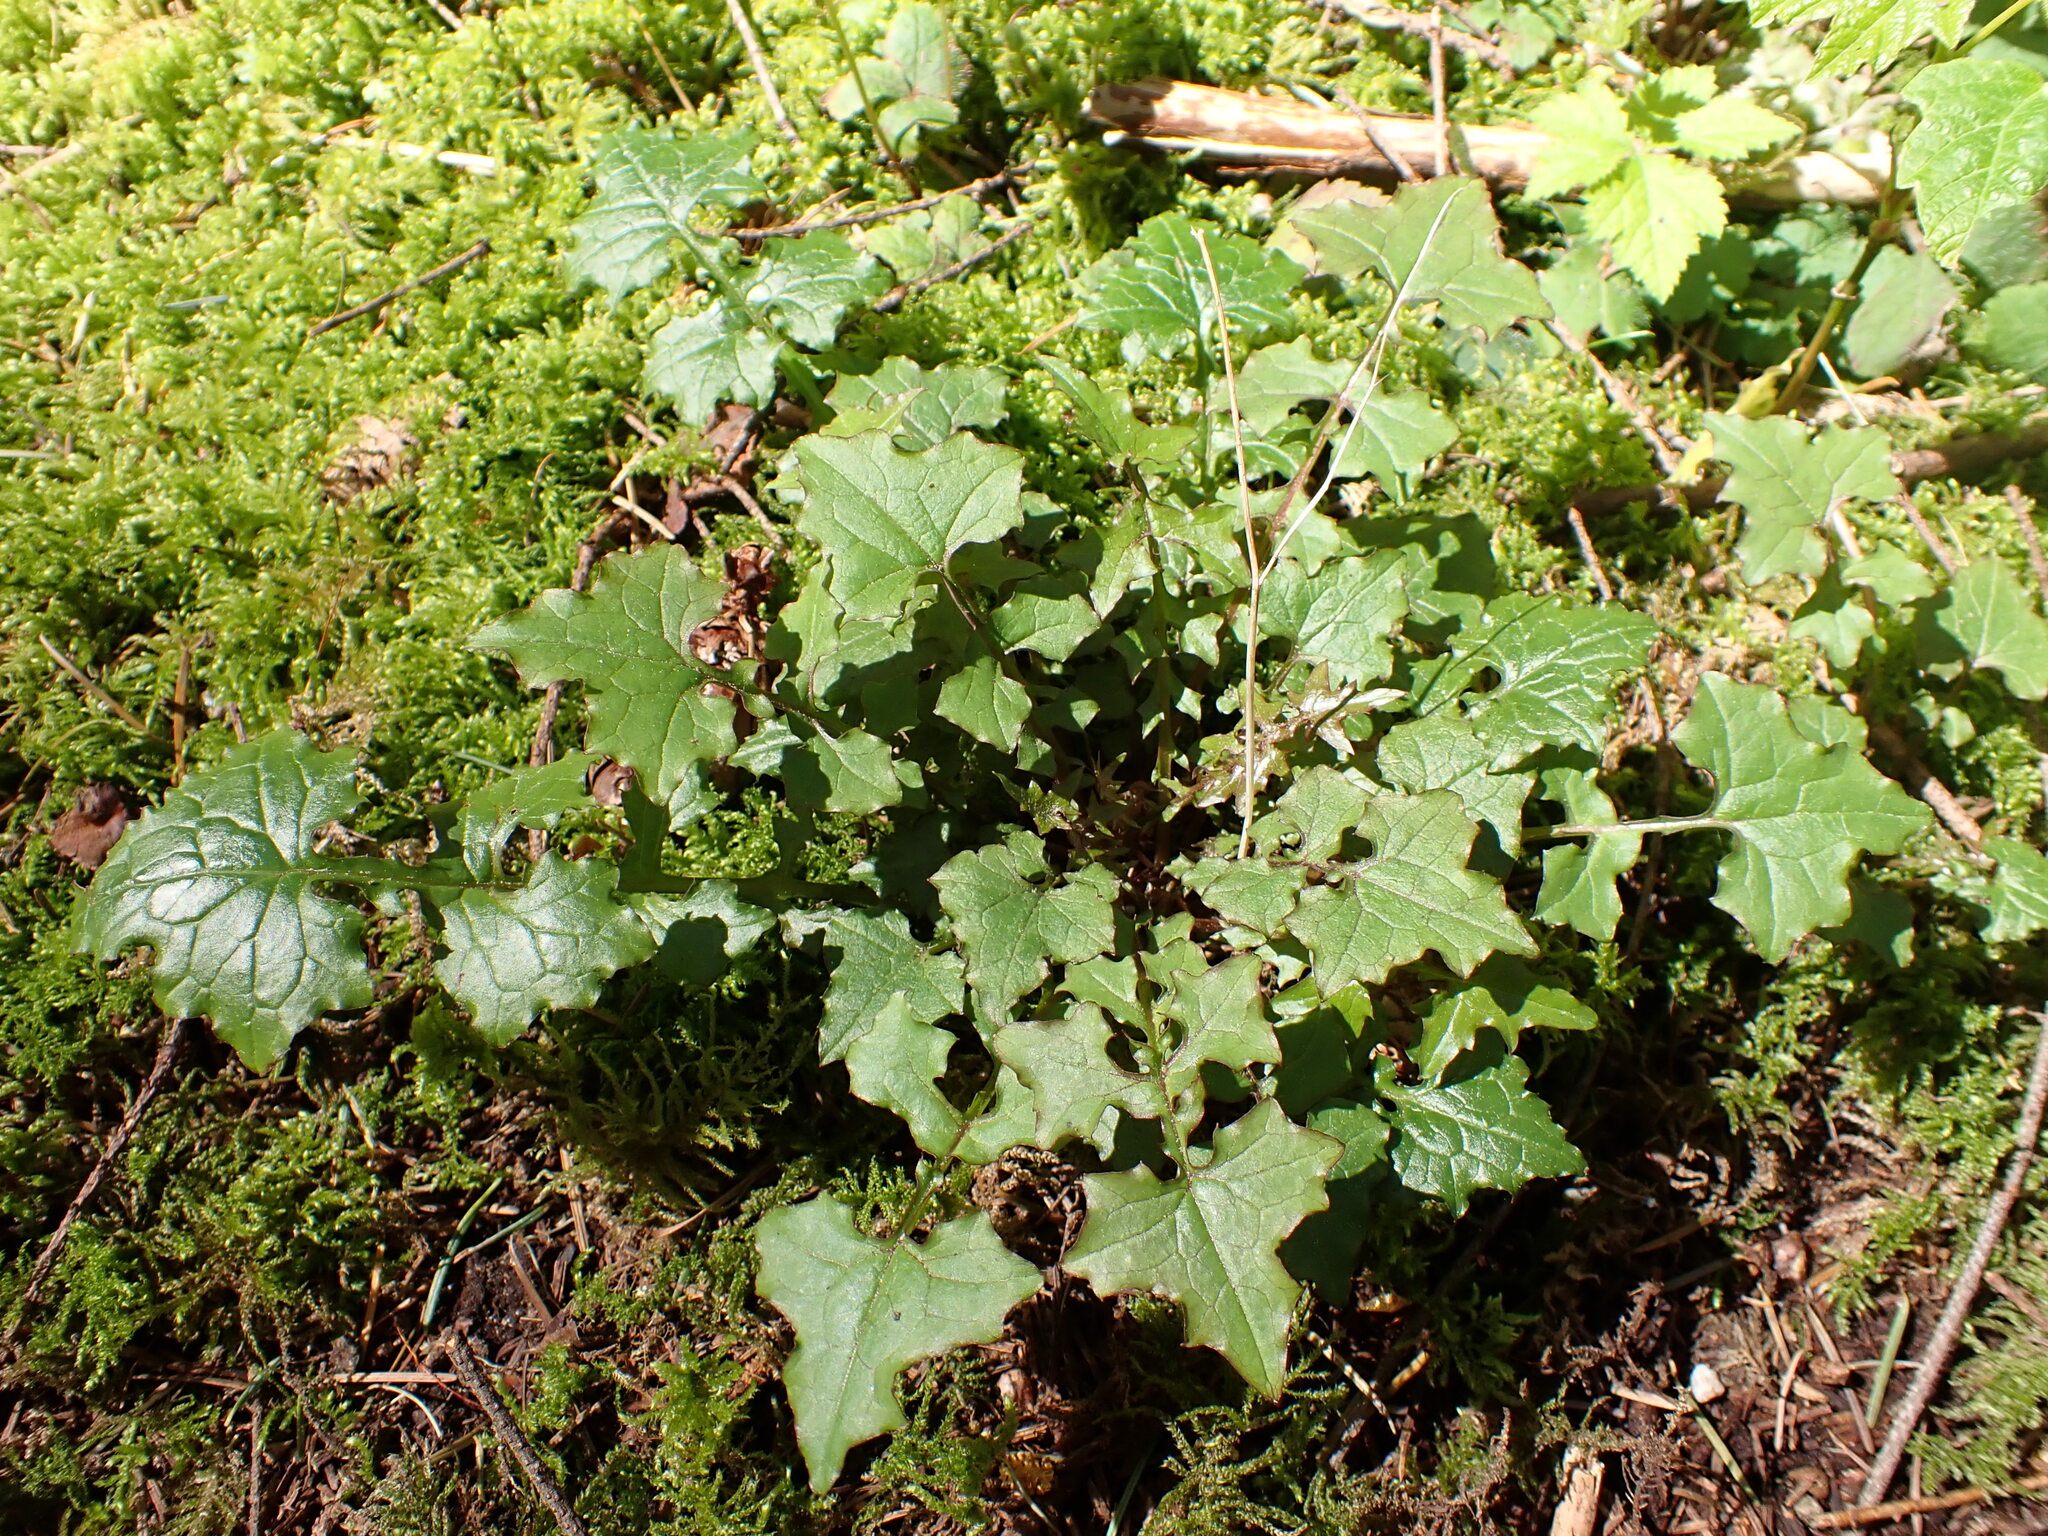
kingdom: Plantae
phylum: Tracheophyta
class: Magnoliopsida
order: Asterales
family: Asteraceae
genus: Mycelis
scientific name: Mycelis muralis
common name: Wall lettuce
